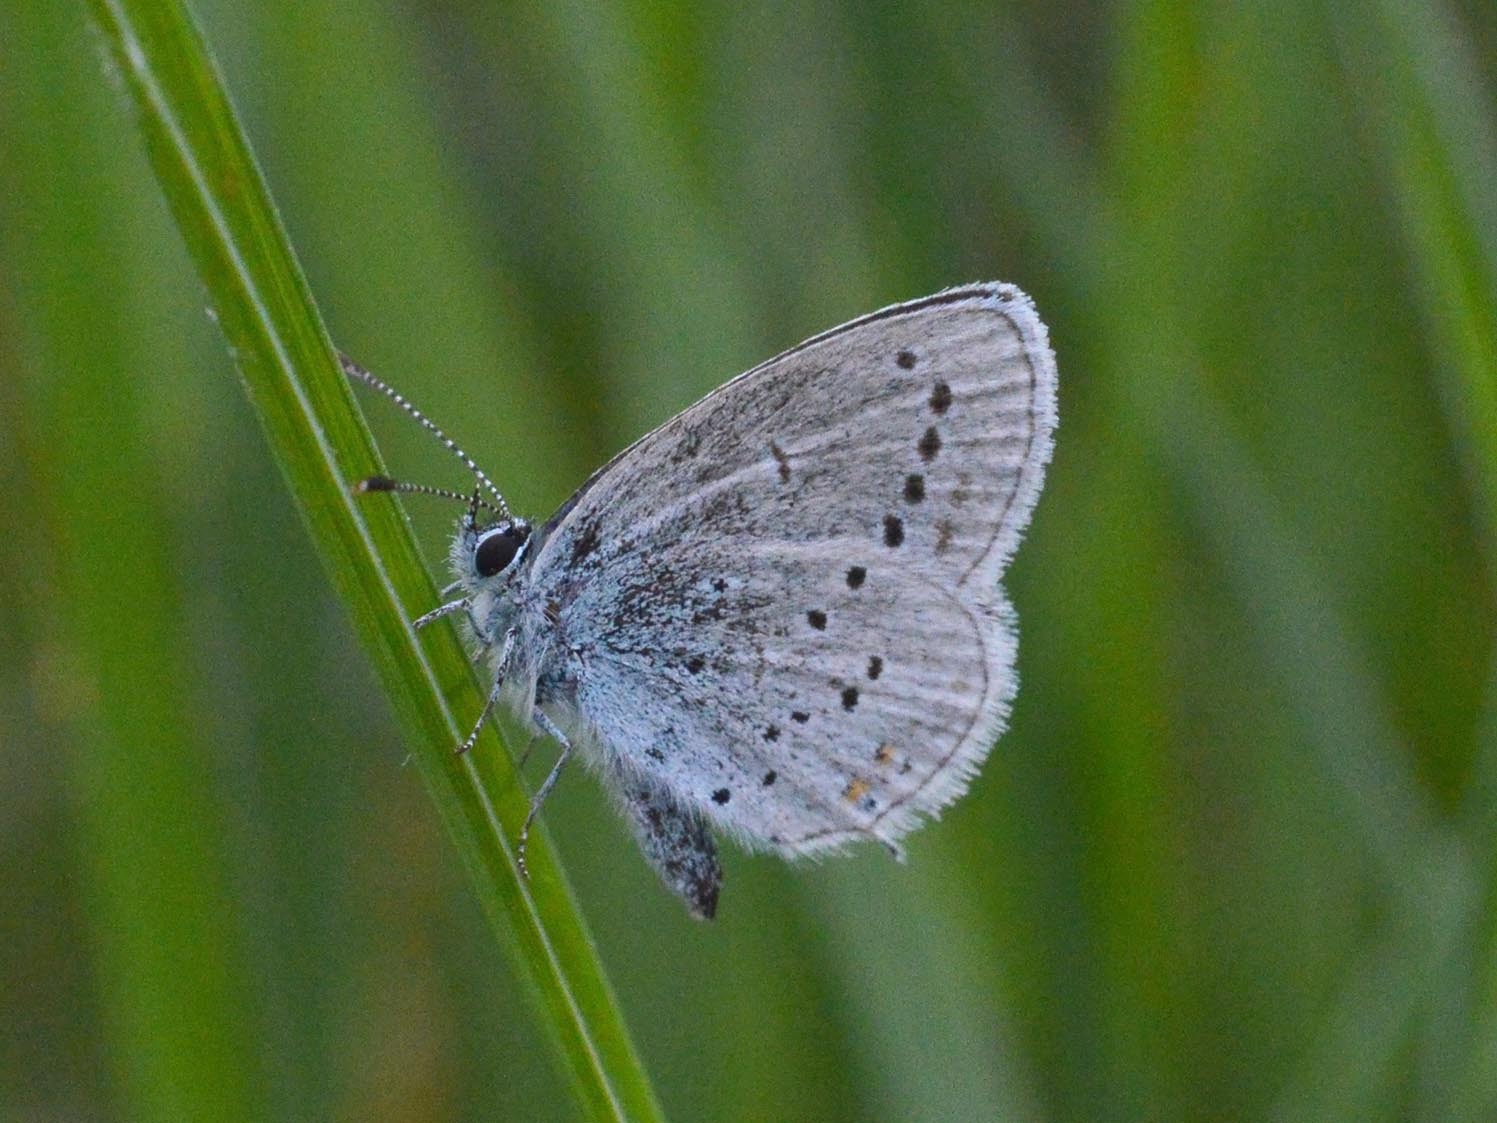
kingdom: Animalia
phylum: Arthropoda
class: Insecta
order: Lepidoptera
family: Lycaenidae
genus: Elkalyce
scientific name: Elkalyce alcetas
